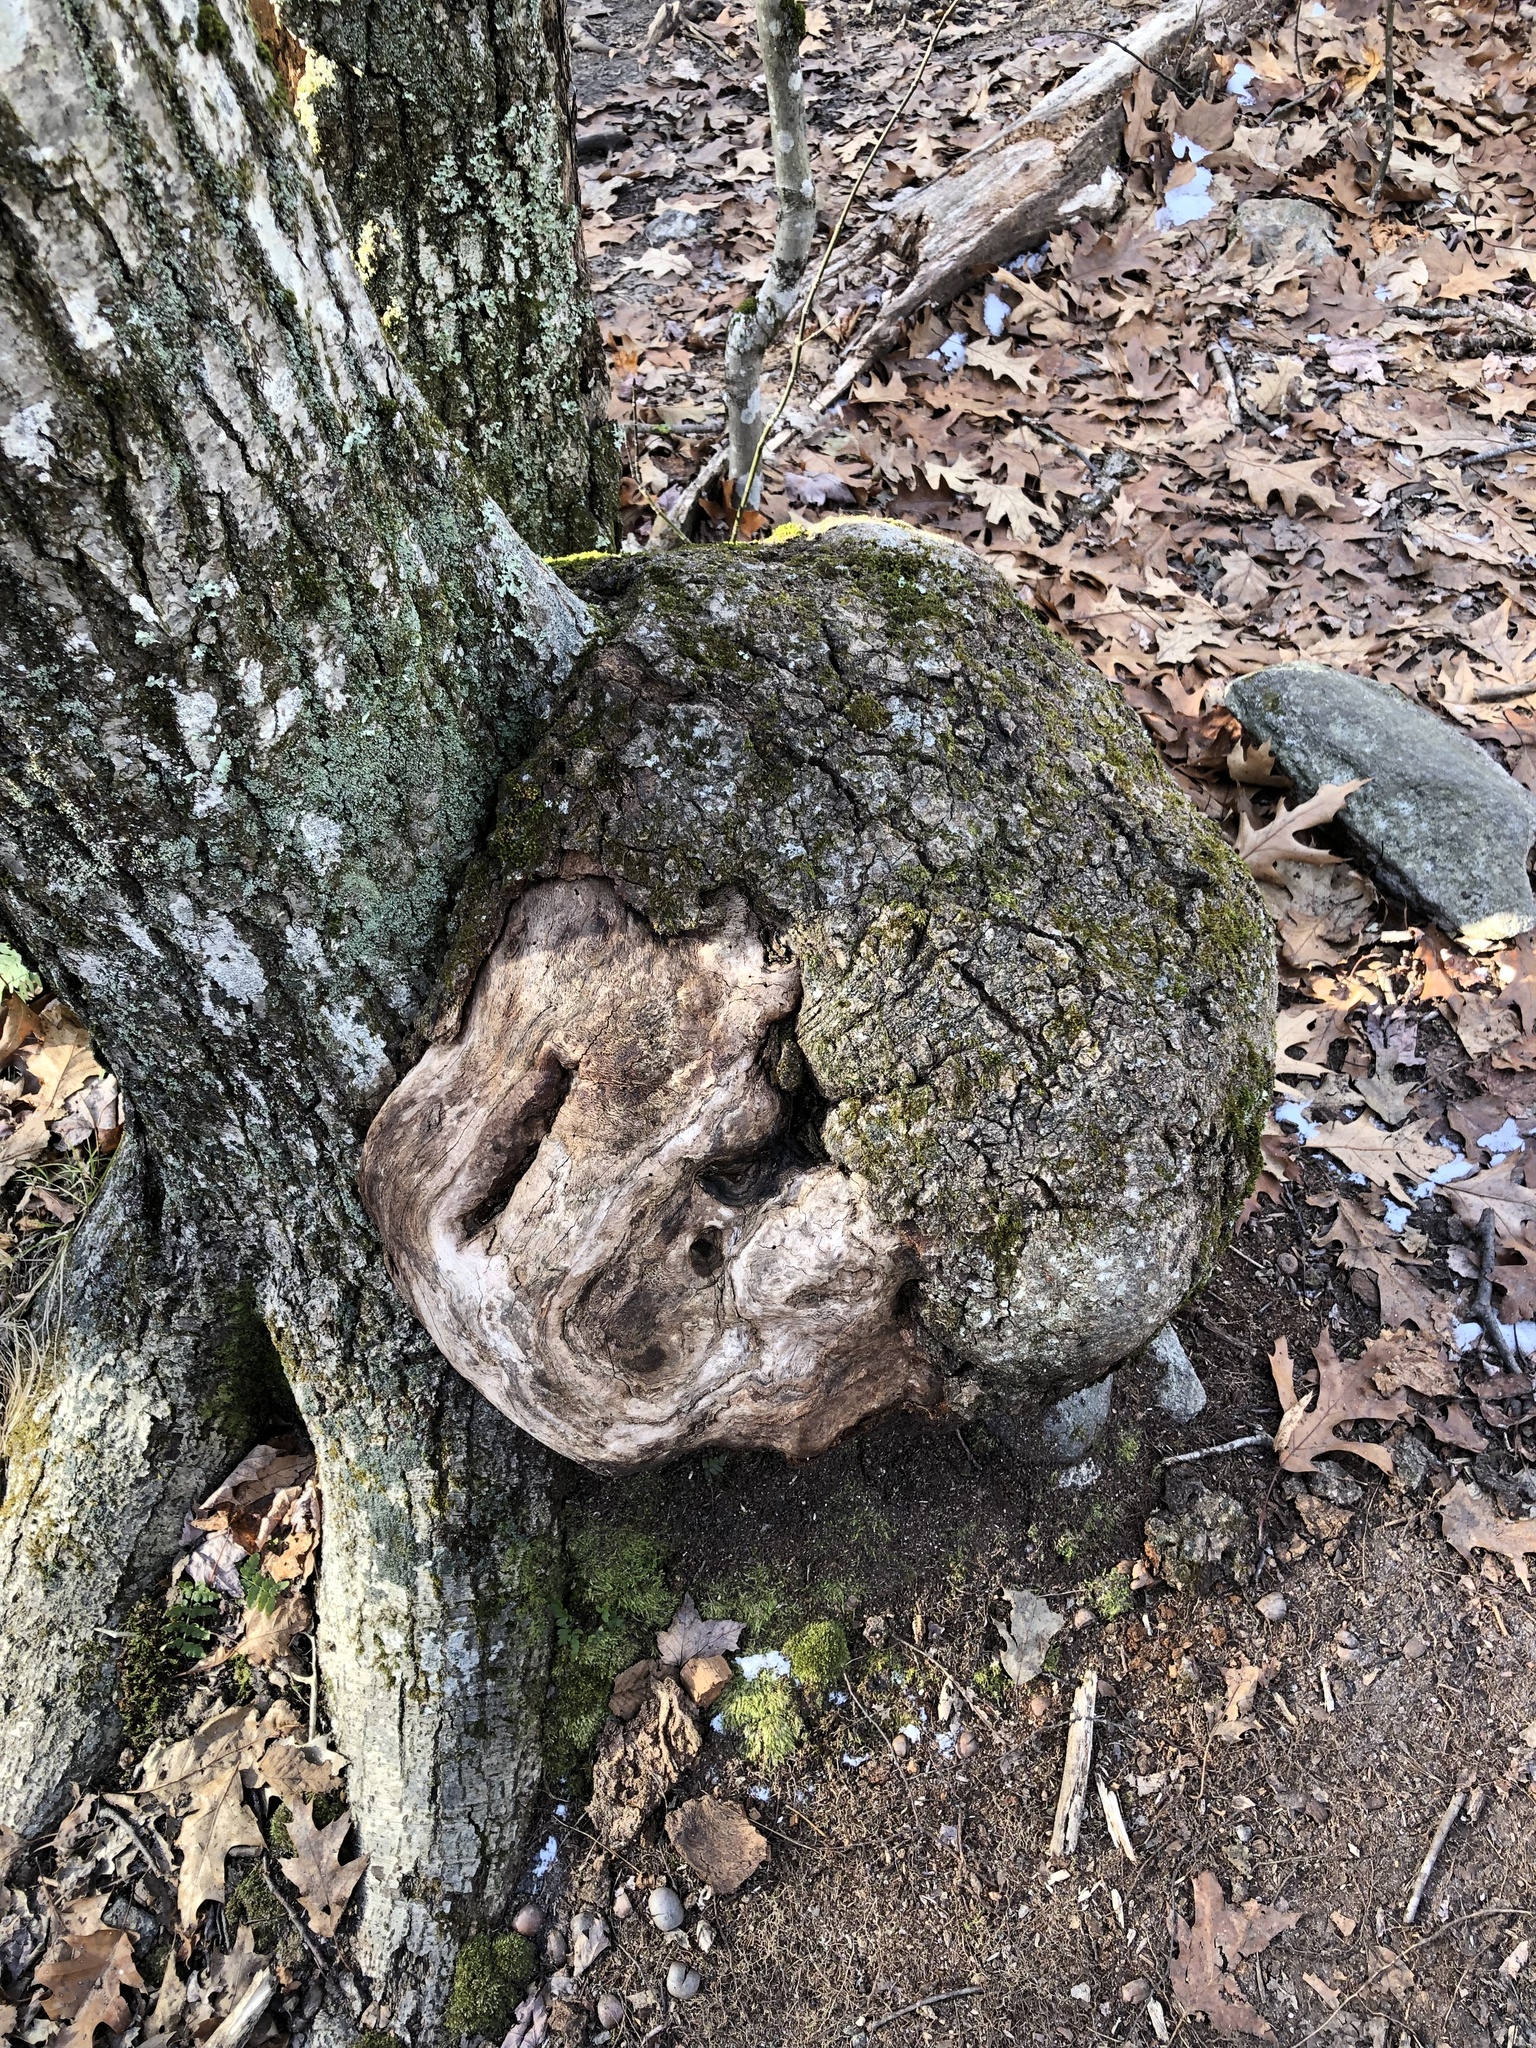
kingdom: Bacteria
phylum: Proteobacteria
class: Alphaproteobacteria
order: Rhizobiales
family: Rhizobiaceae
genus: Rhizobium
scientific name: Rhizobium Agrobacterium radiobacter
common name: Bacterial crown gall
